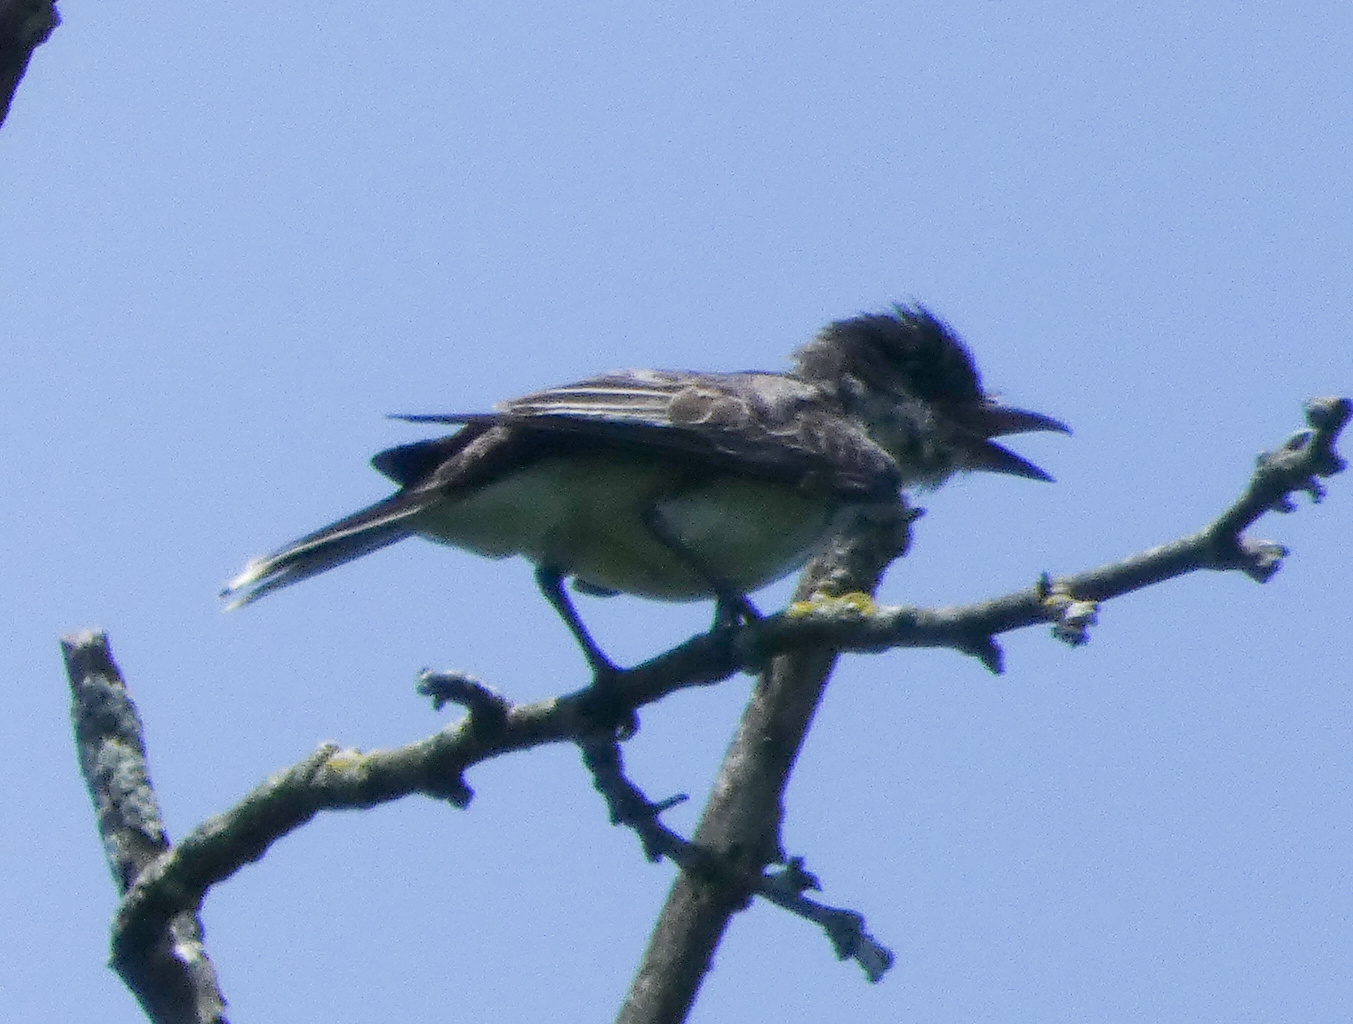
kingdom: Animalia
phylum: Chordata
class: Aves
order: Passeriformes
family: Tyrannidae
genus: Tyrannus
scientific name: Tyrannus tyrannus
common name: Eastern kingbird
